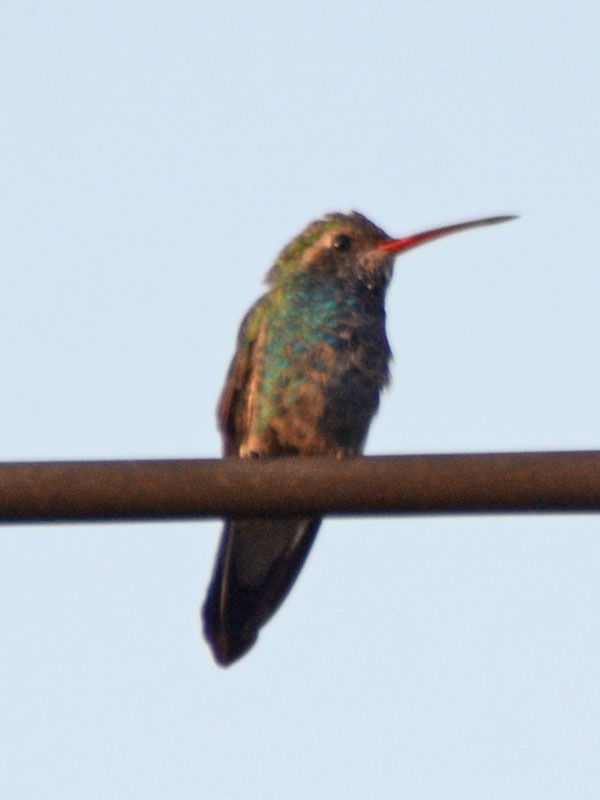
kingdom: Animalia
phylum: Chordata
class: Aves
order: Apodiformes
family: Trochilidae
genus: Cynanthus
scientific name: Cynanthus latirostris
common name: Broad-billed hummingbird
